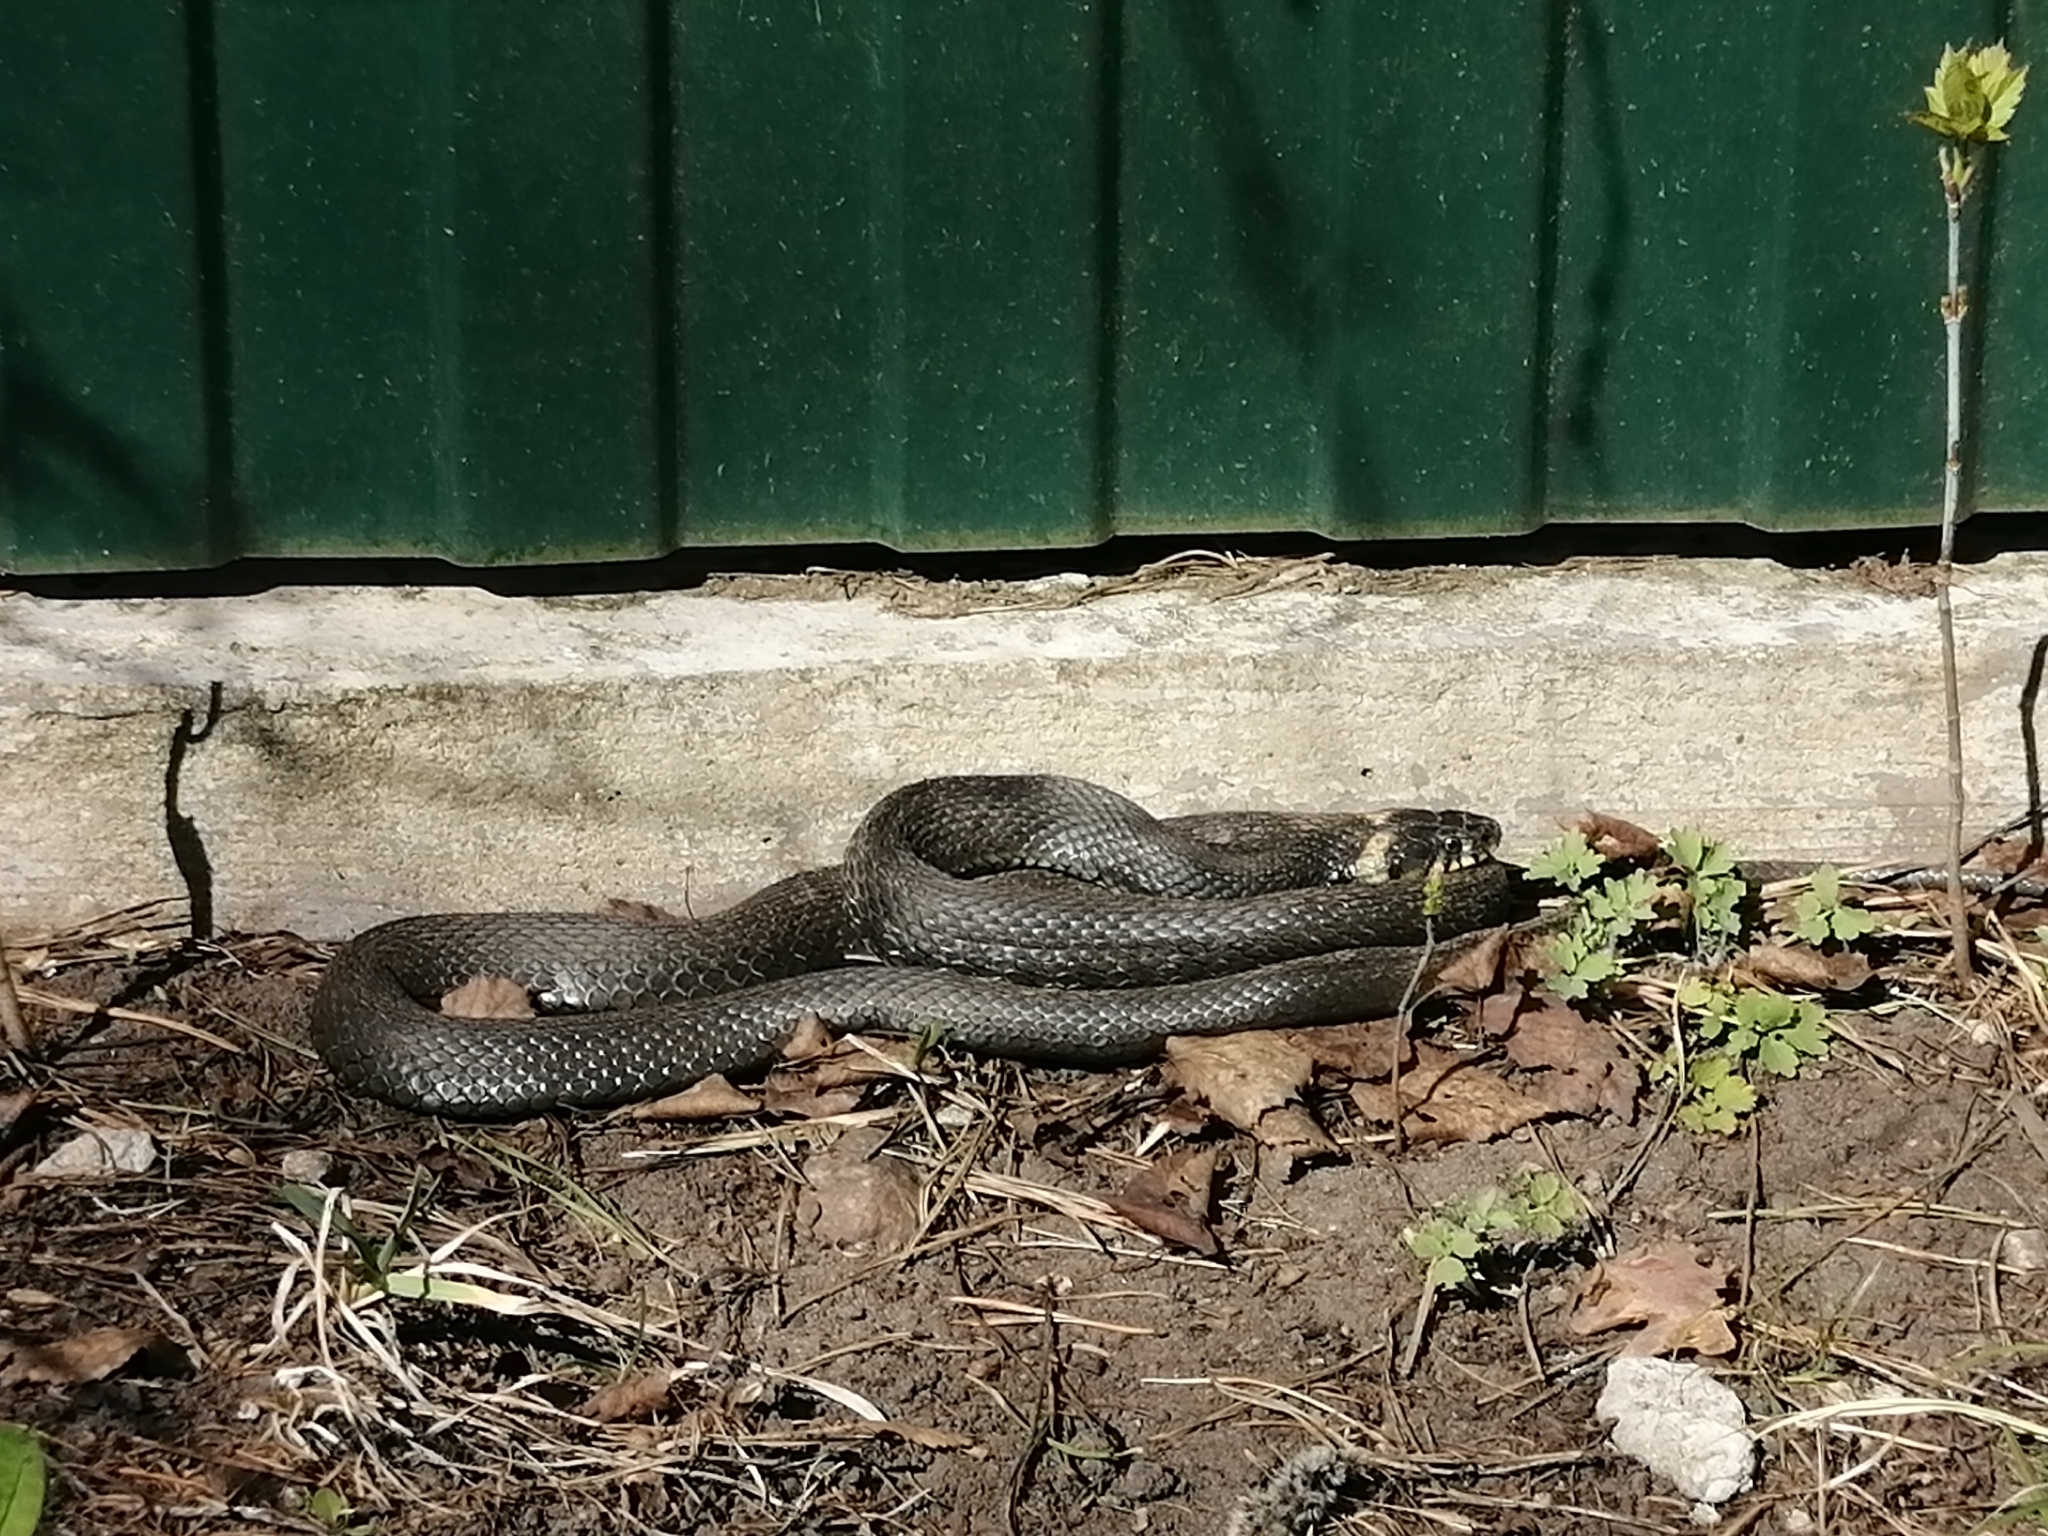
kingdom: Animalia
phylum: Chordata
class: Squamata
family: Colubridae
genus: Natrix
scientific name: Natrix natrix
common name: Grass snake
